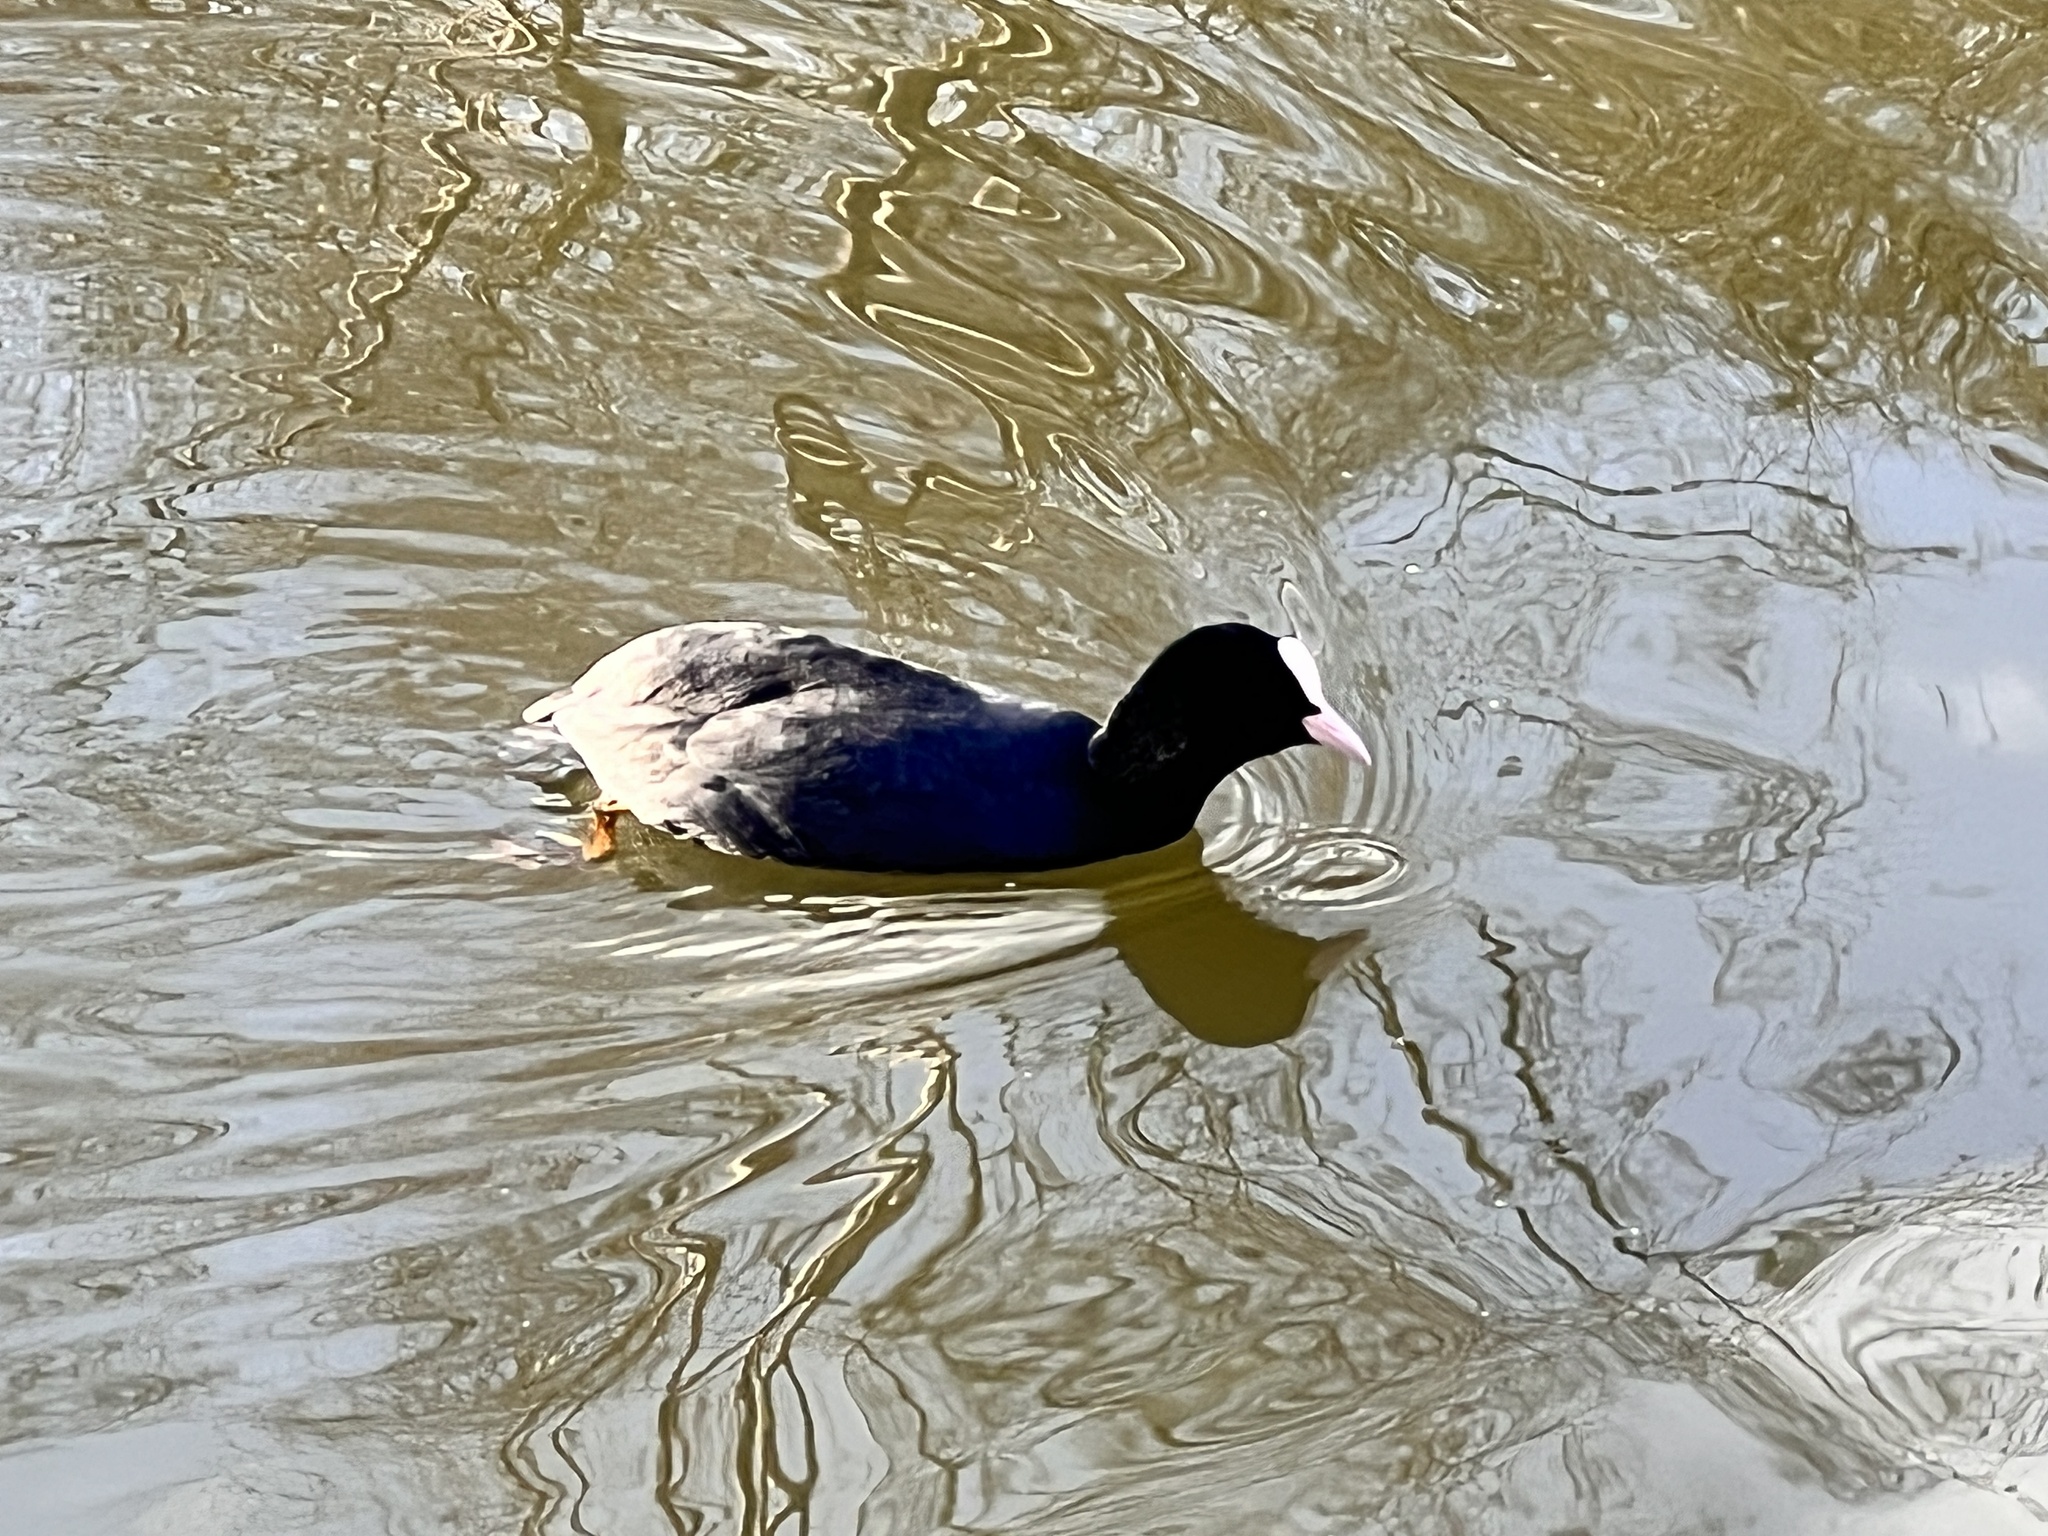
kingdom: Animalia
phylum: Chordata
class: Aves
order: Gruiformes
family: Rallidae
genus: Fulica
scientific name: Fulica atra
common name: Eurasian coot
